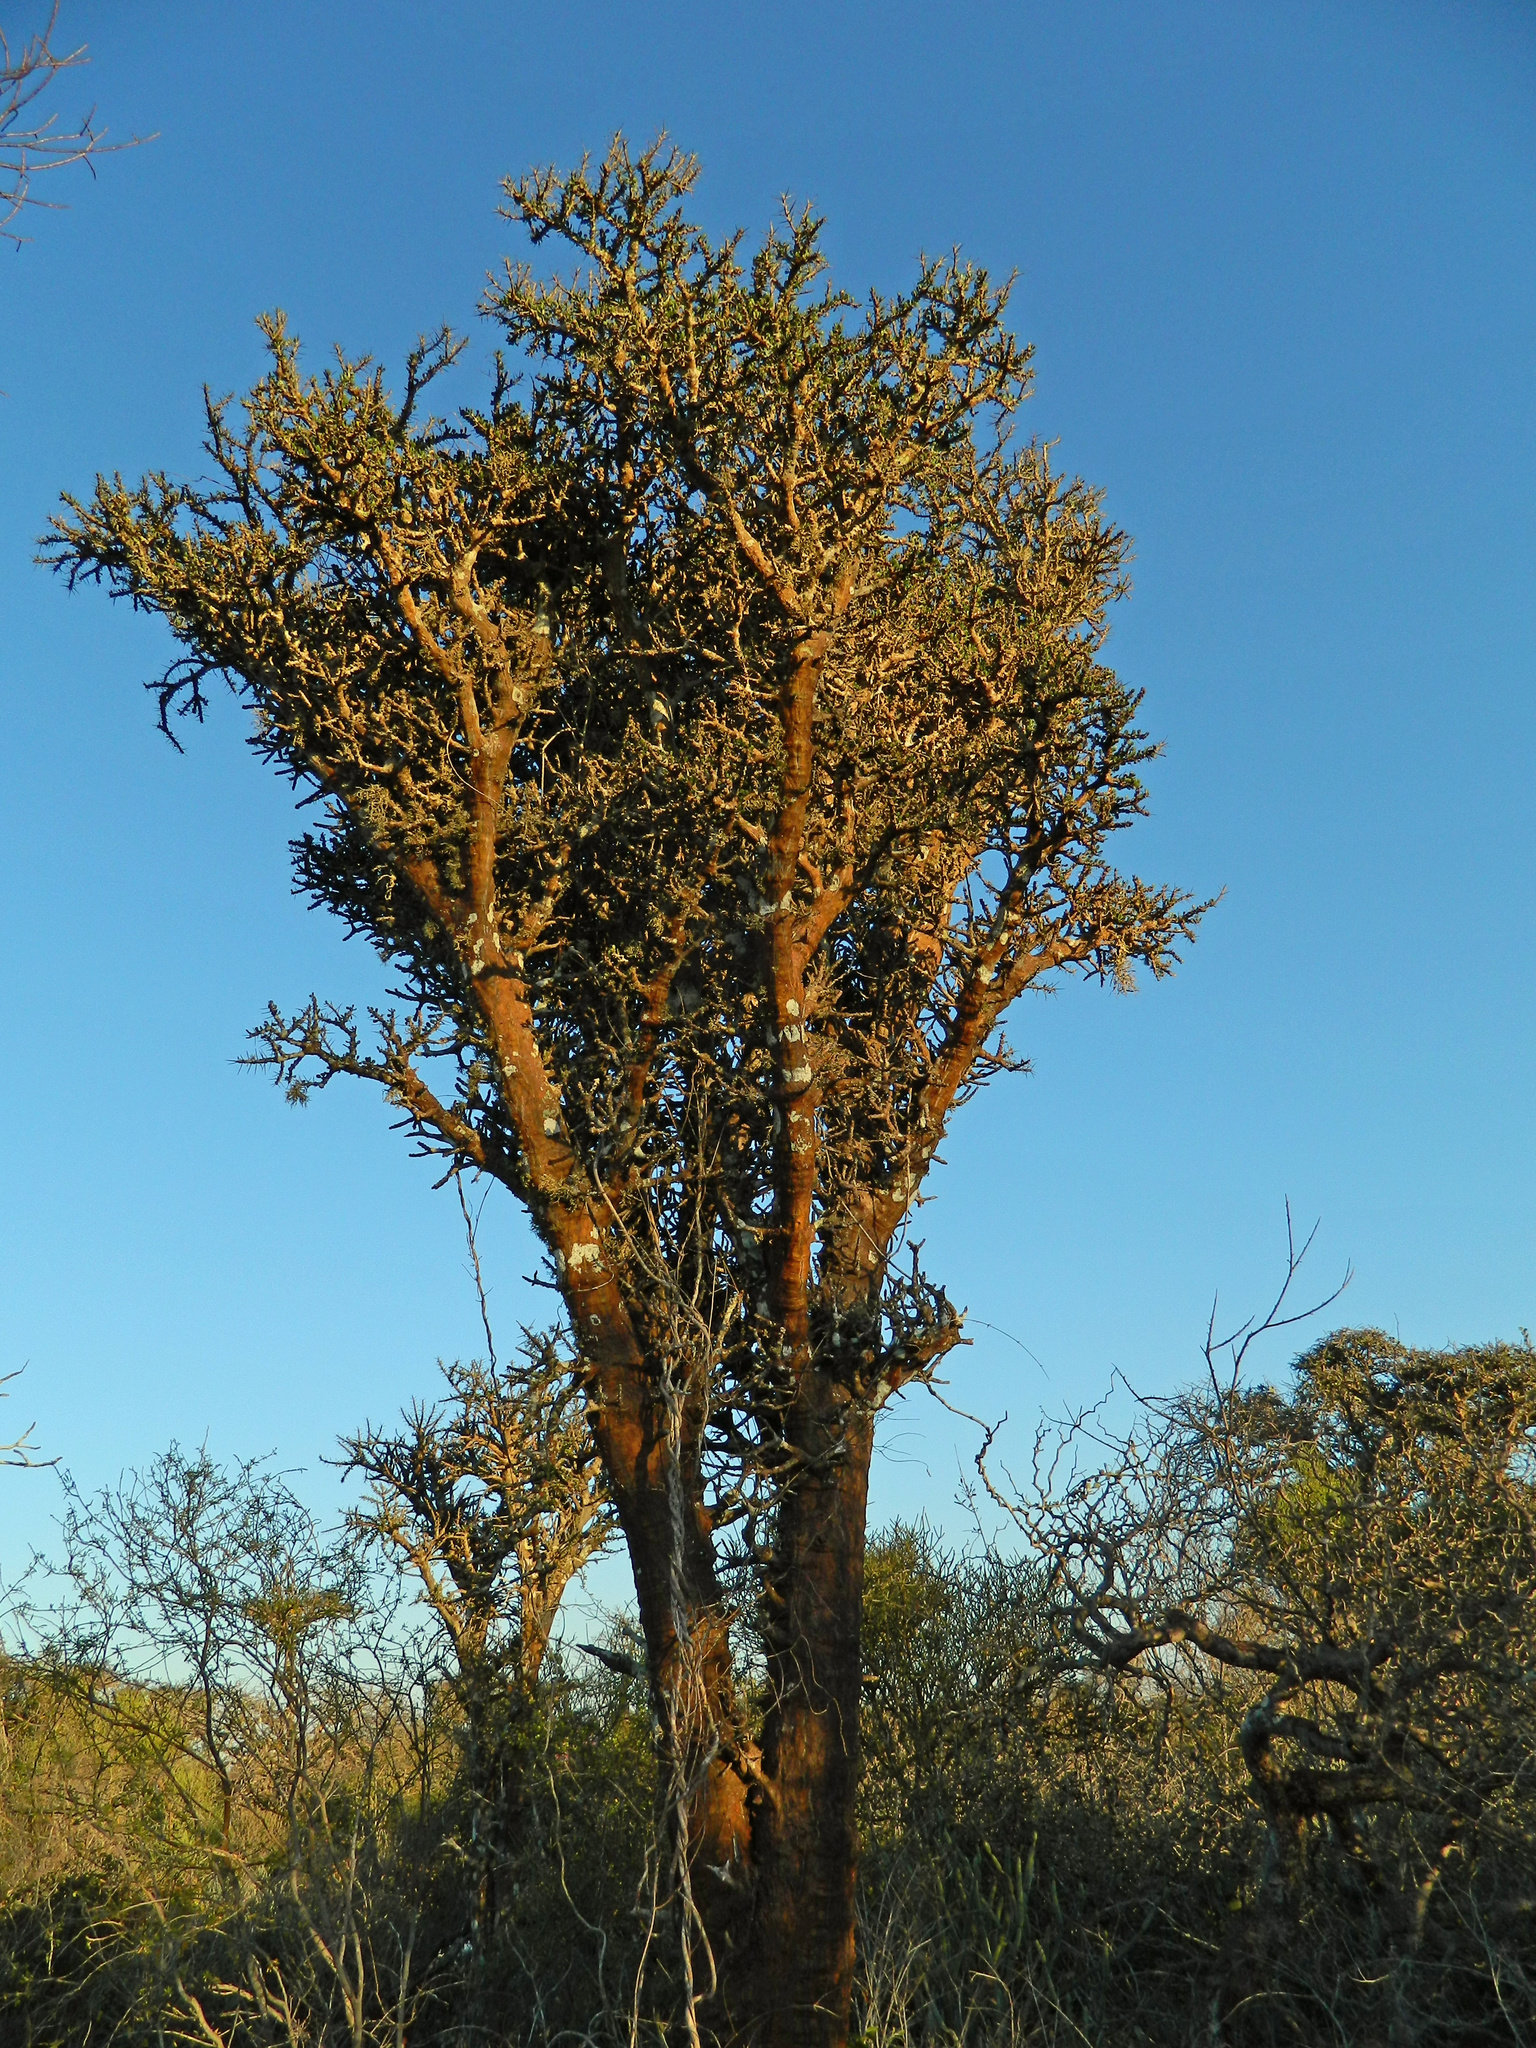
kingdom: Plantae
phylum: Tracheophyta
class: Magnoliopsida
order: Caryophyllales
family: Didiereaceae
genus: Alluaudia
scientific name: Alluaudia comosa
